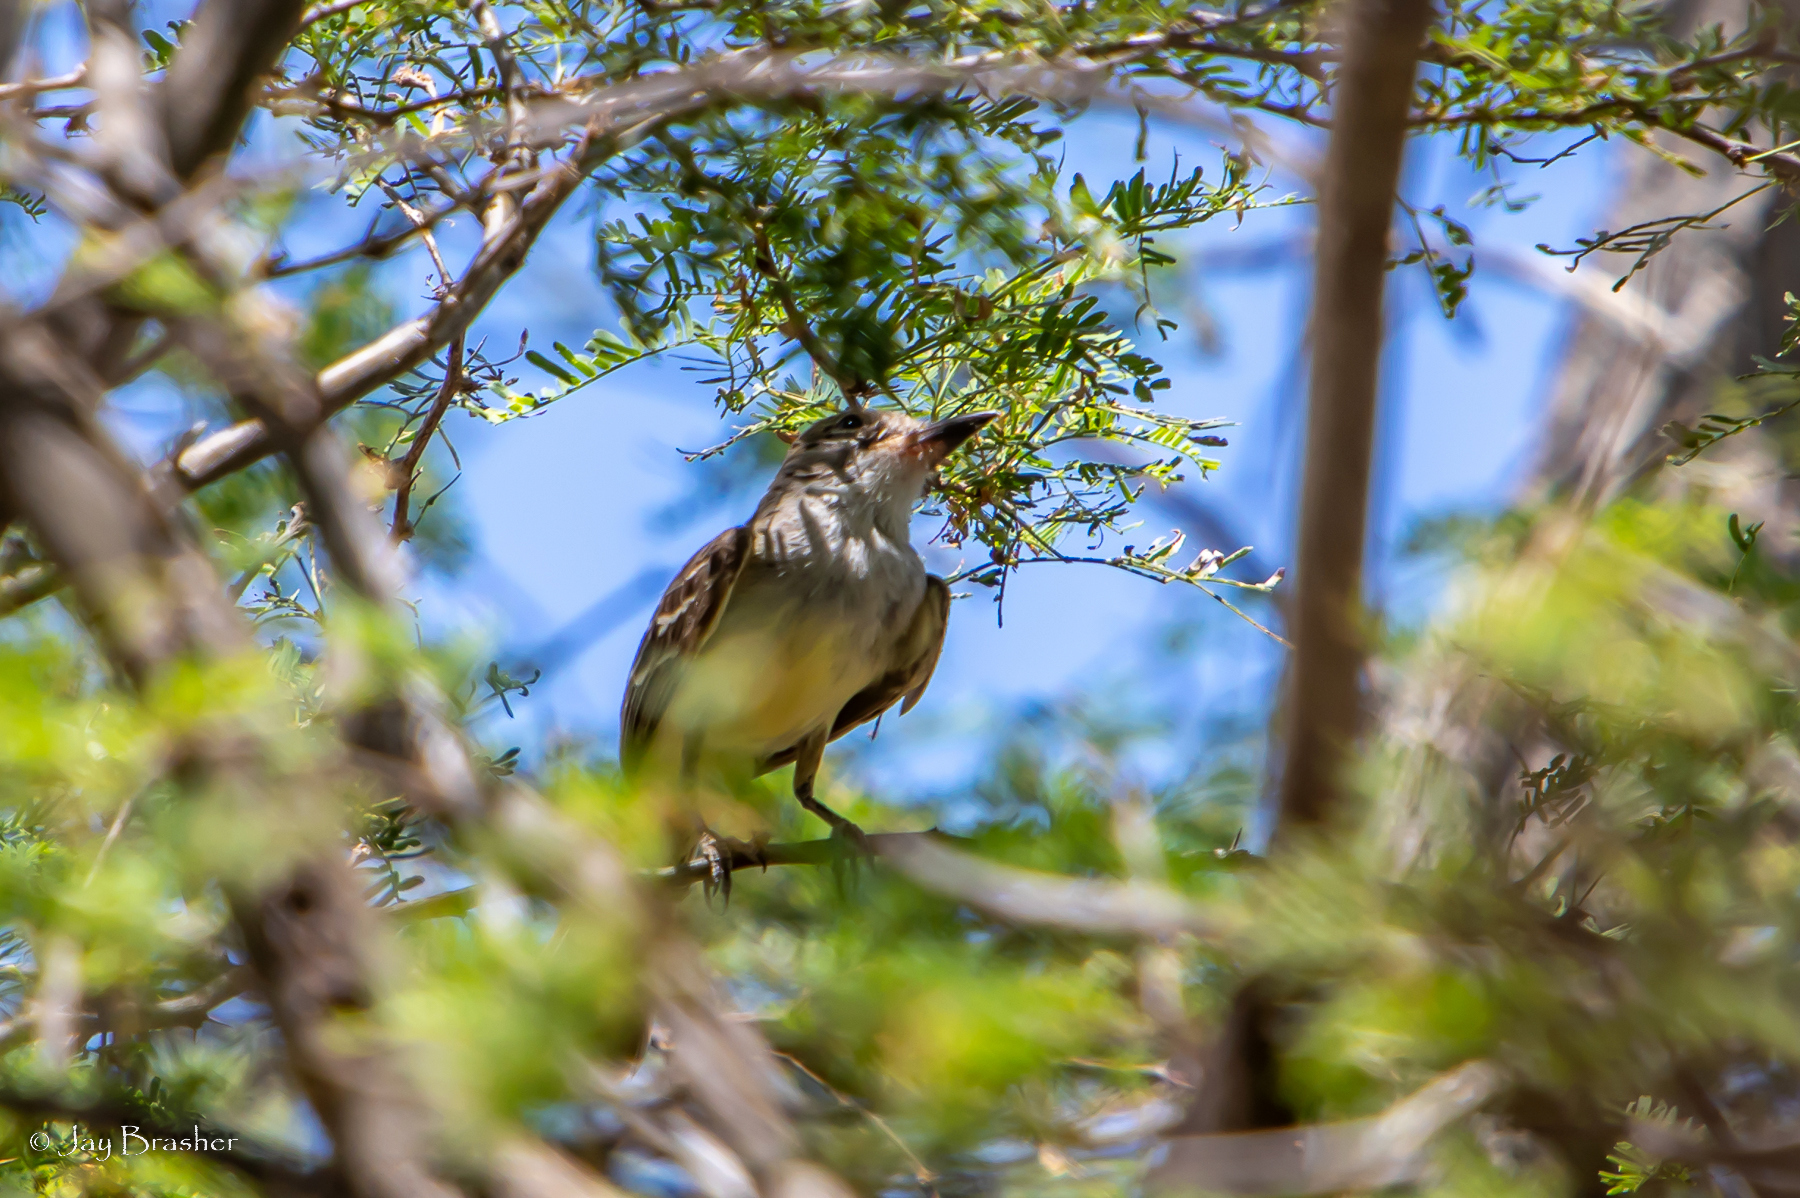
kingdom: Animalia
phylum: Chordata
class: Aves
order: Passeriformes
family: Tyrannidae
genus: Myiarchus
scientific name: Myiarchus tyrannulus
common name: Brown-crested flycatcher
